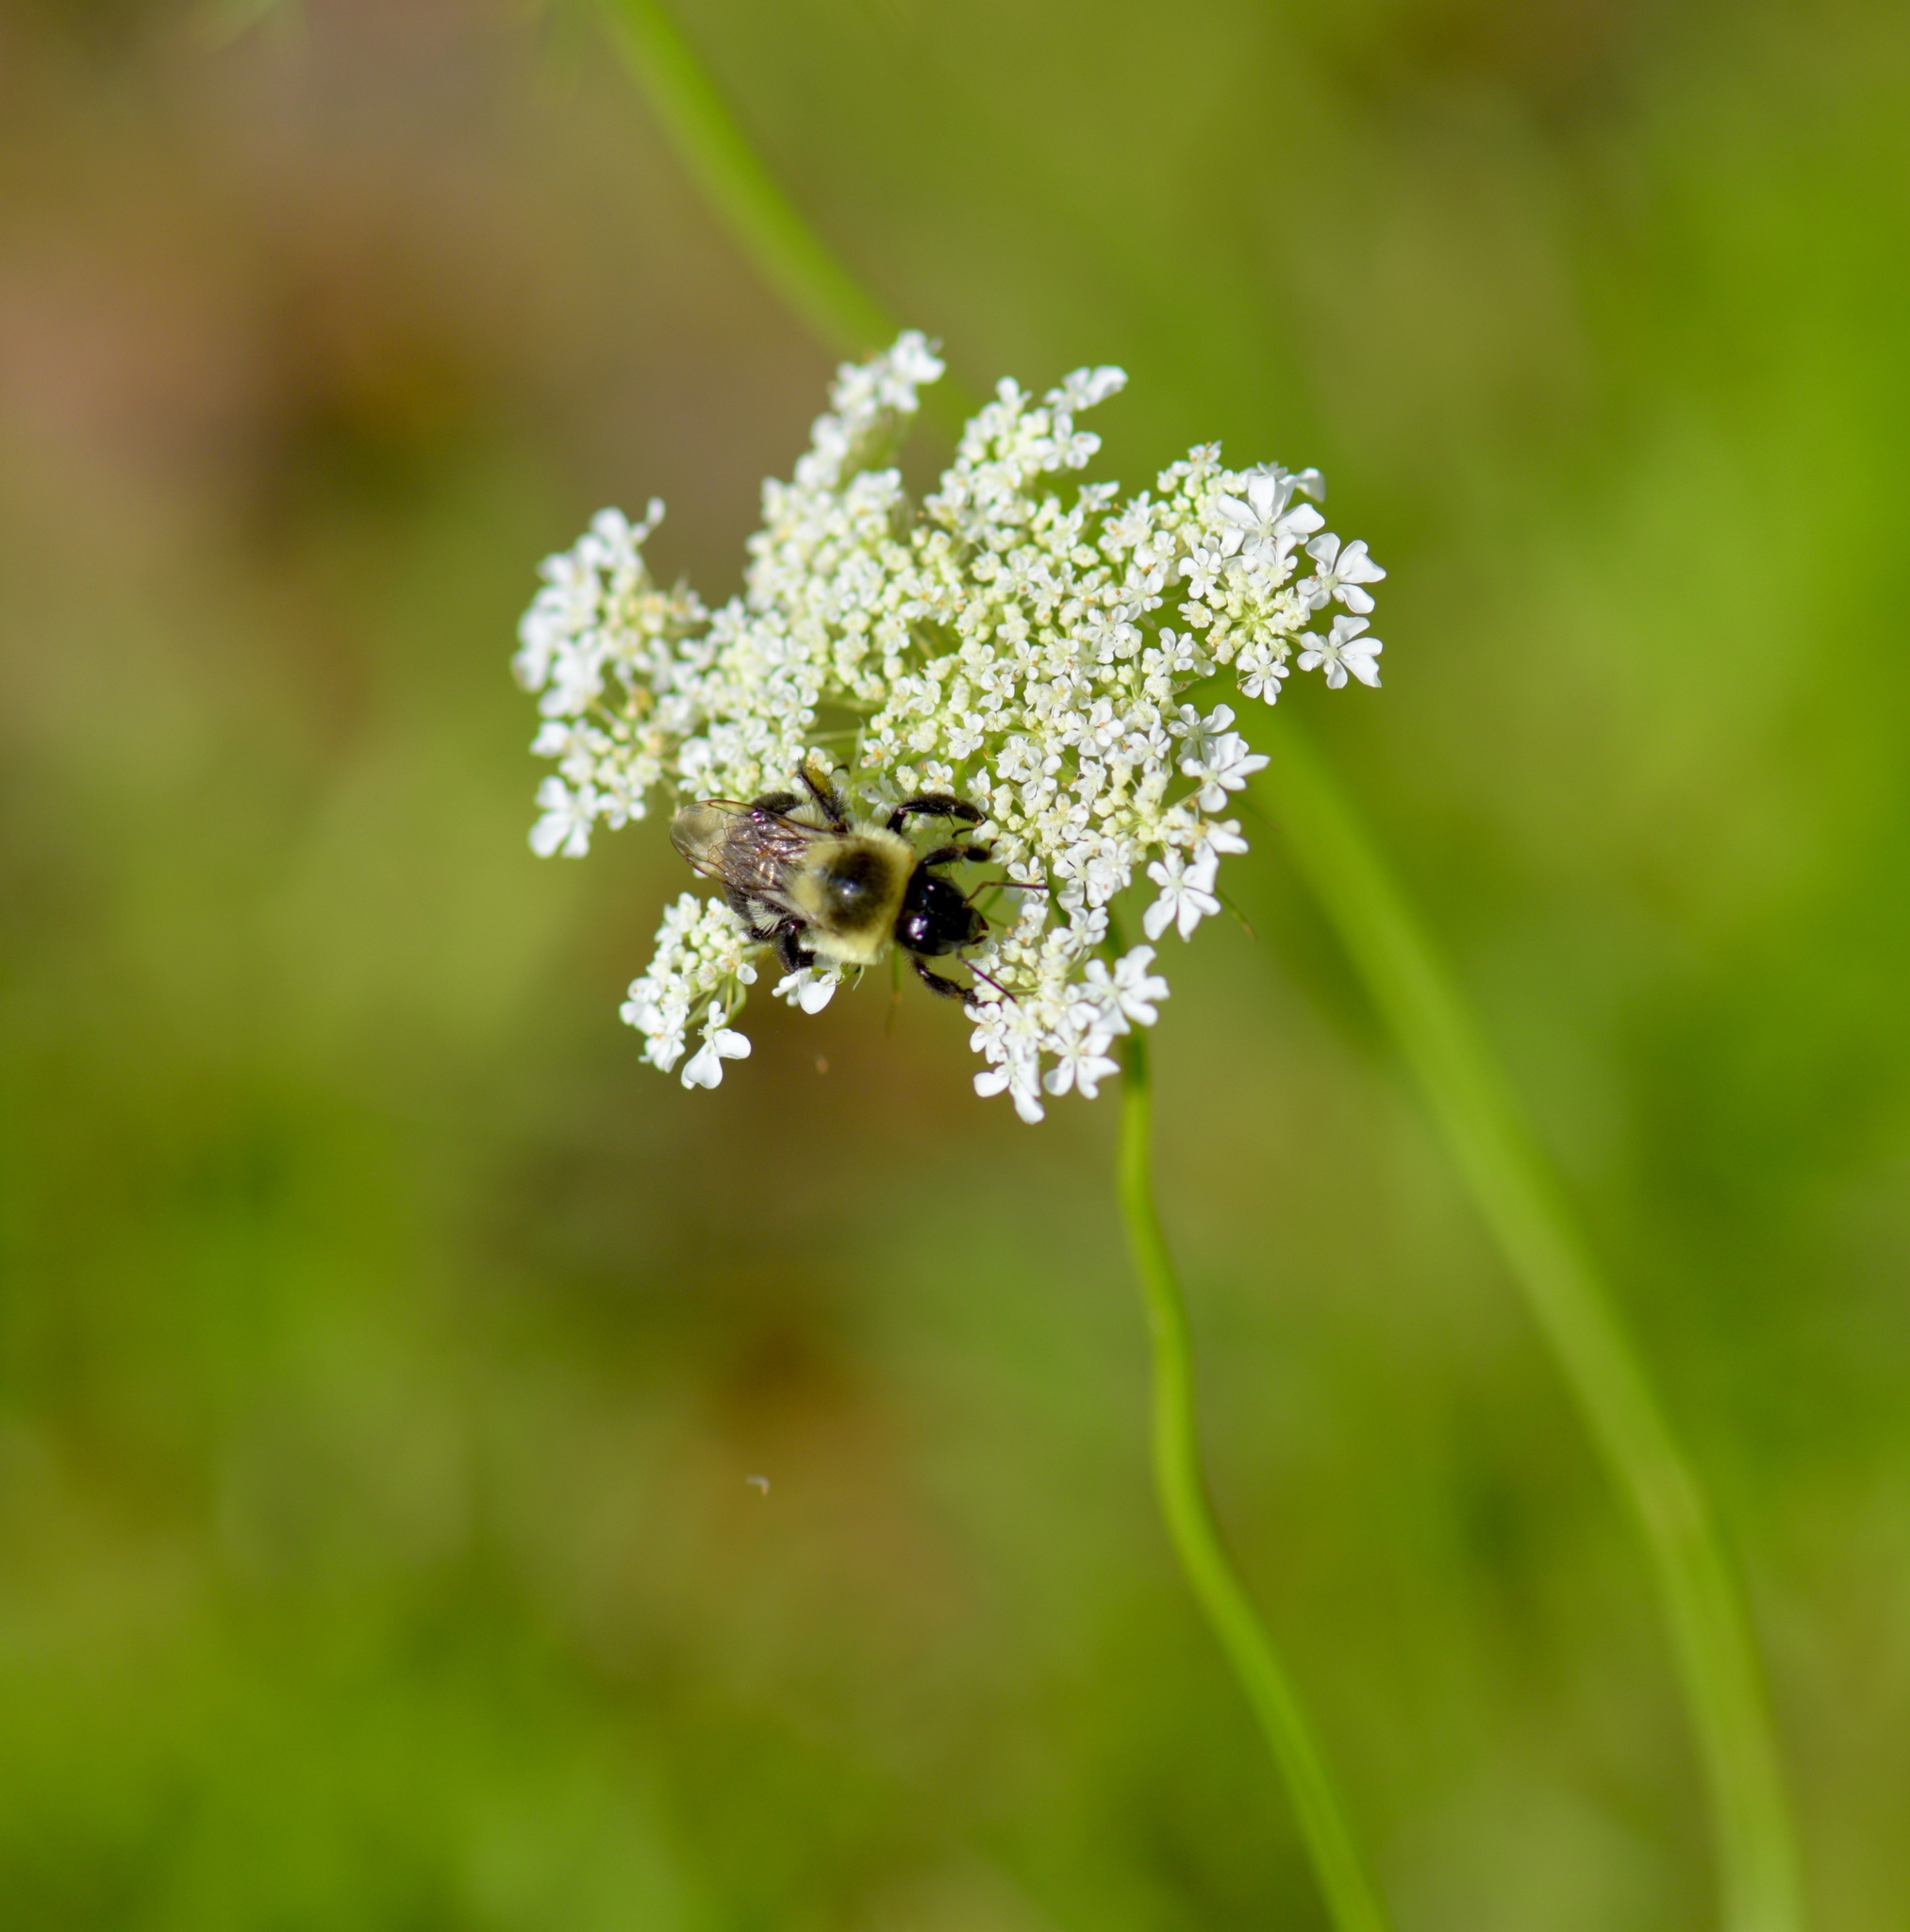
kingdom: Animalia
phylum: Arthropoda
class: Insecta
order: Hymenoptera
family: Apidae
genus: Bombus
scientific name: Bombus impatiens
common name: Common eastern bumble bee
